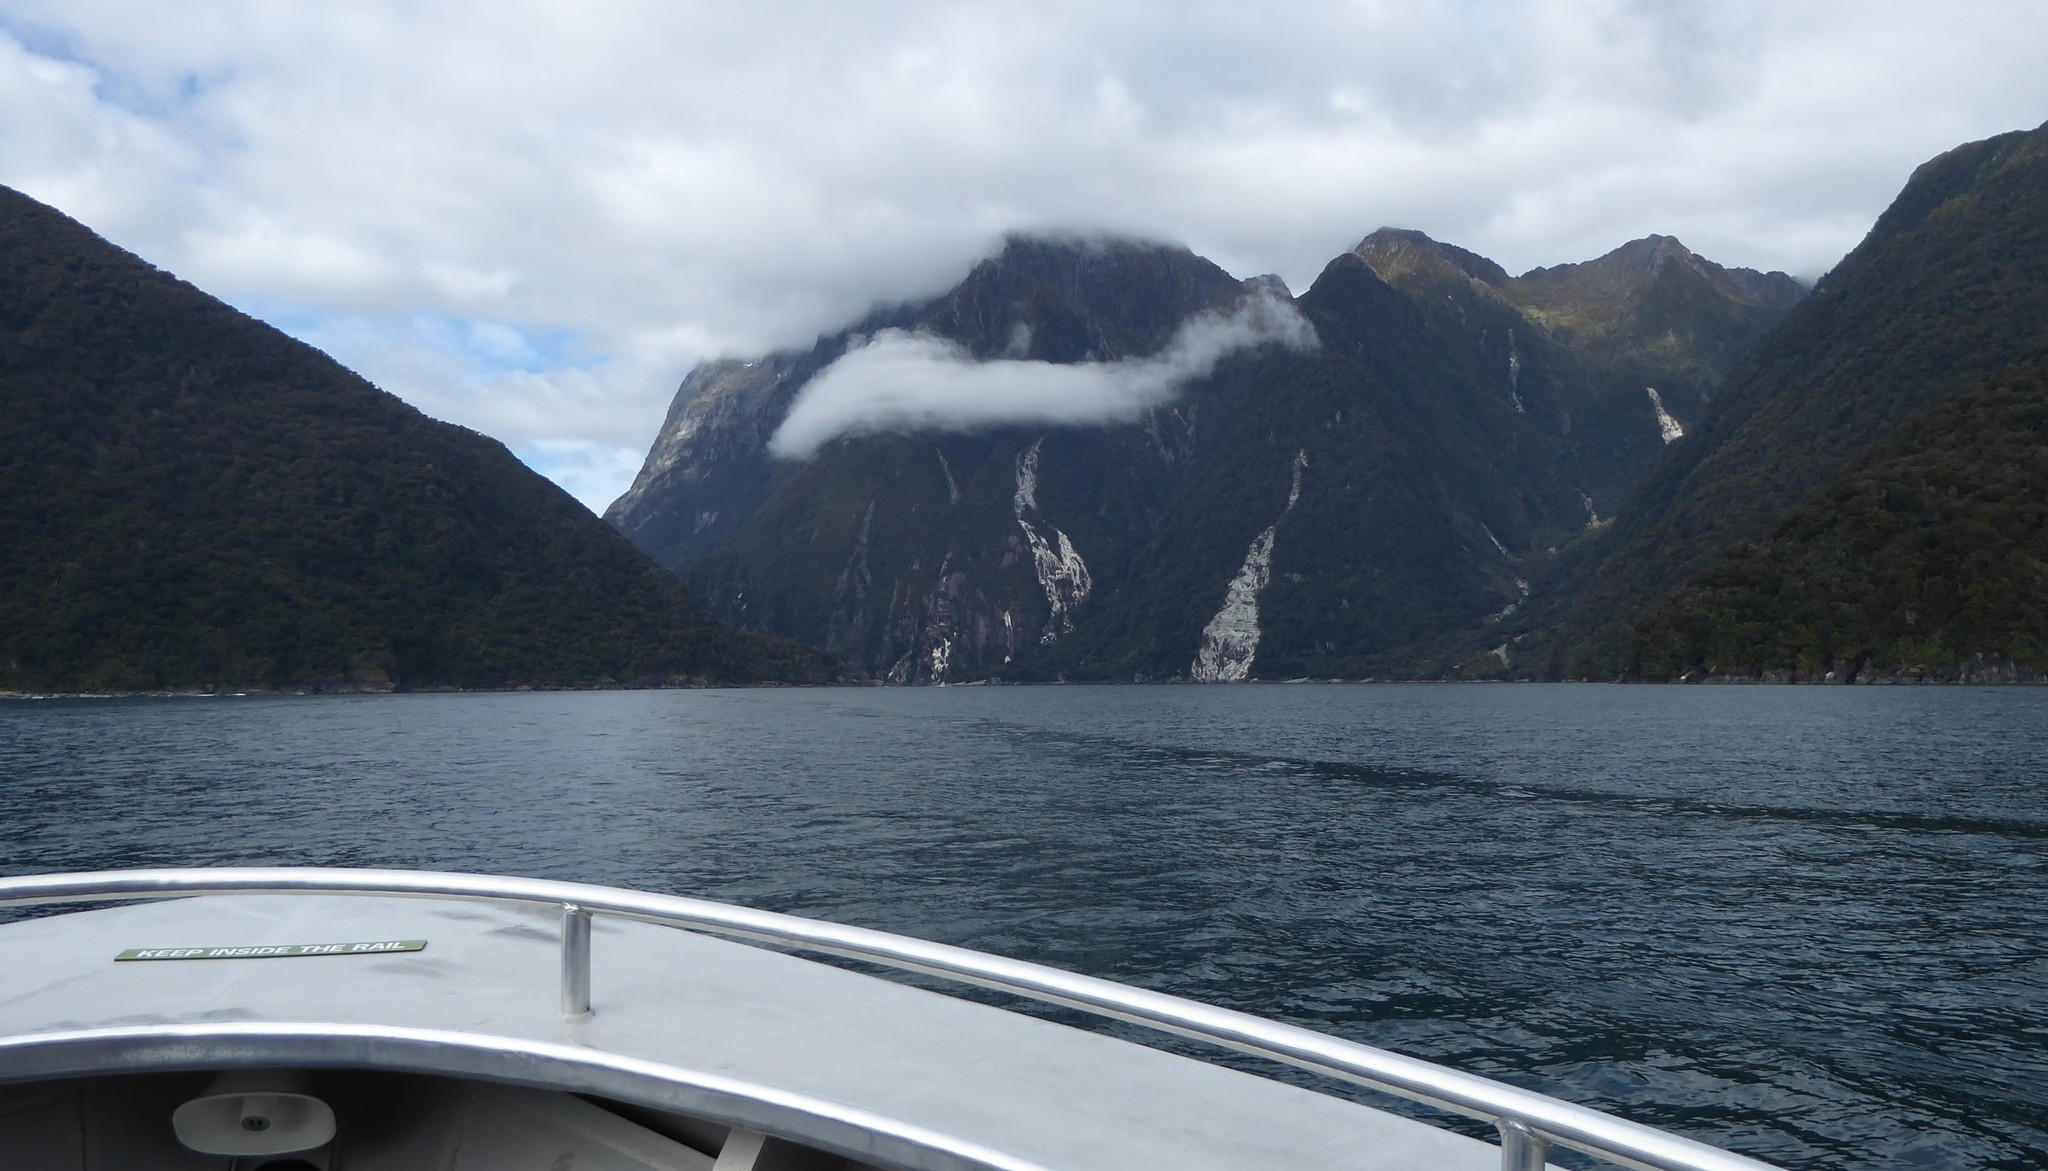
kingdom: Animalia
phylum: Chordata
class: Aves
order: Sphenisciformes
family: Spheniscidae
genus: Eudyptes
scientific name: Eudyptes pachyrhynchus
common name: Fiordland penguin
